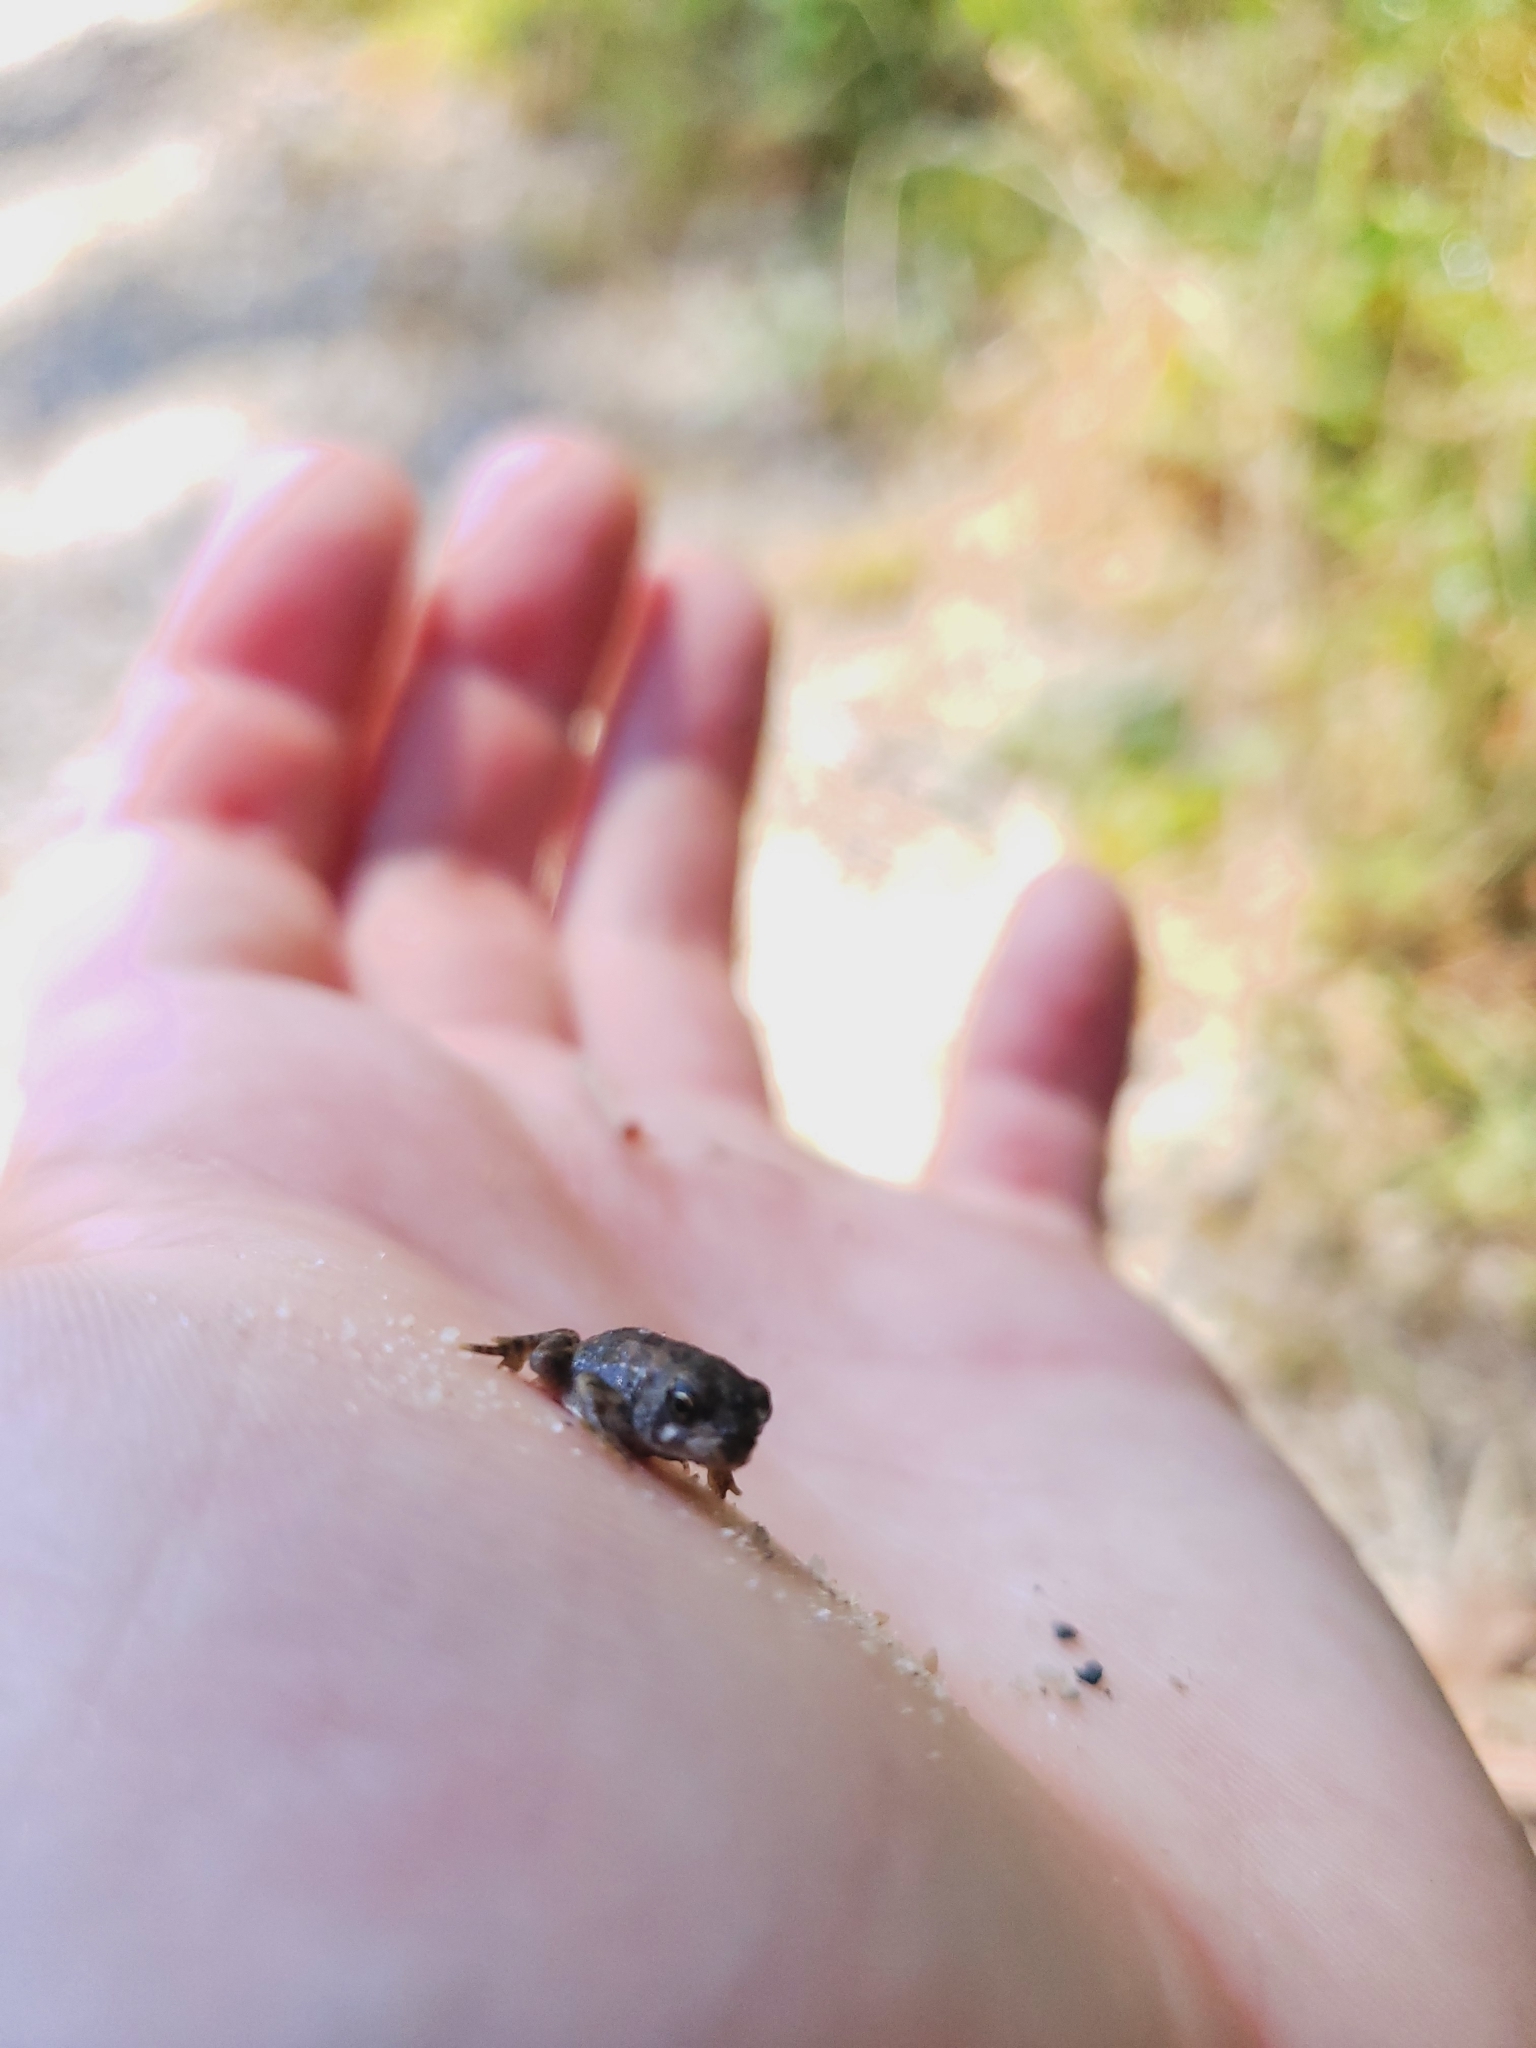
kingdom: Animalia
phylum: Chordata
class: Amphibia
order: Anura
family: Bufonidae
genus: Anaxyrus
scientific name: Anaxyrus fowleri
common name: Fowler's toad
